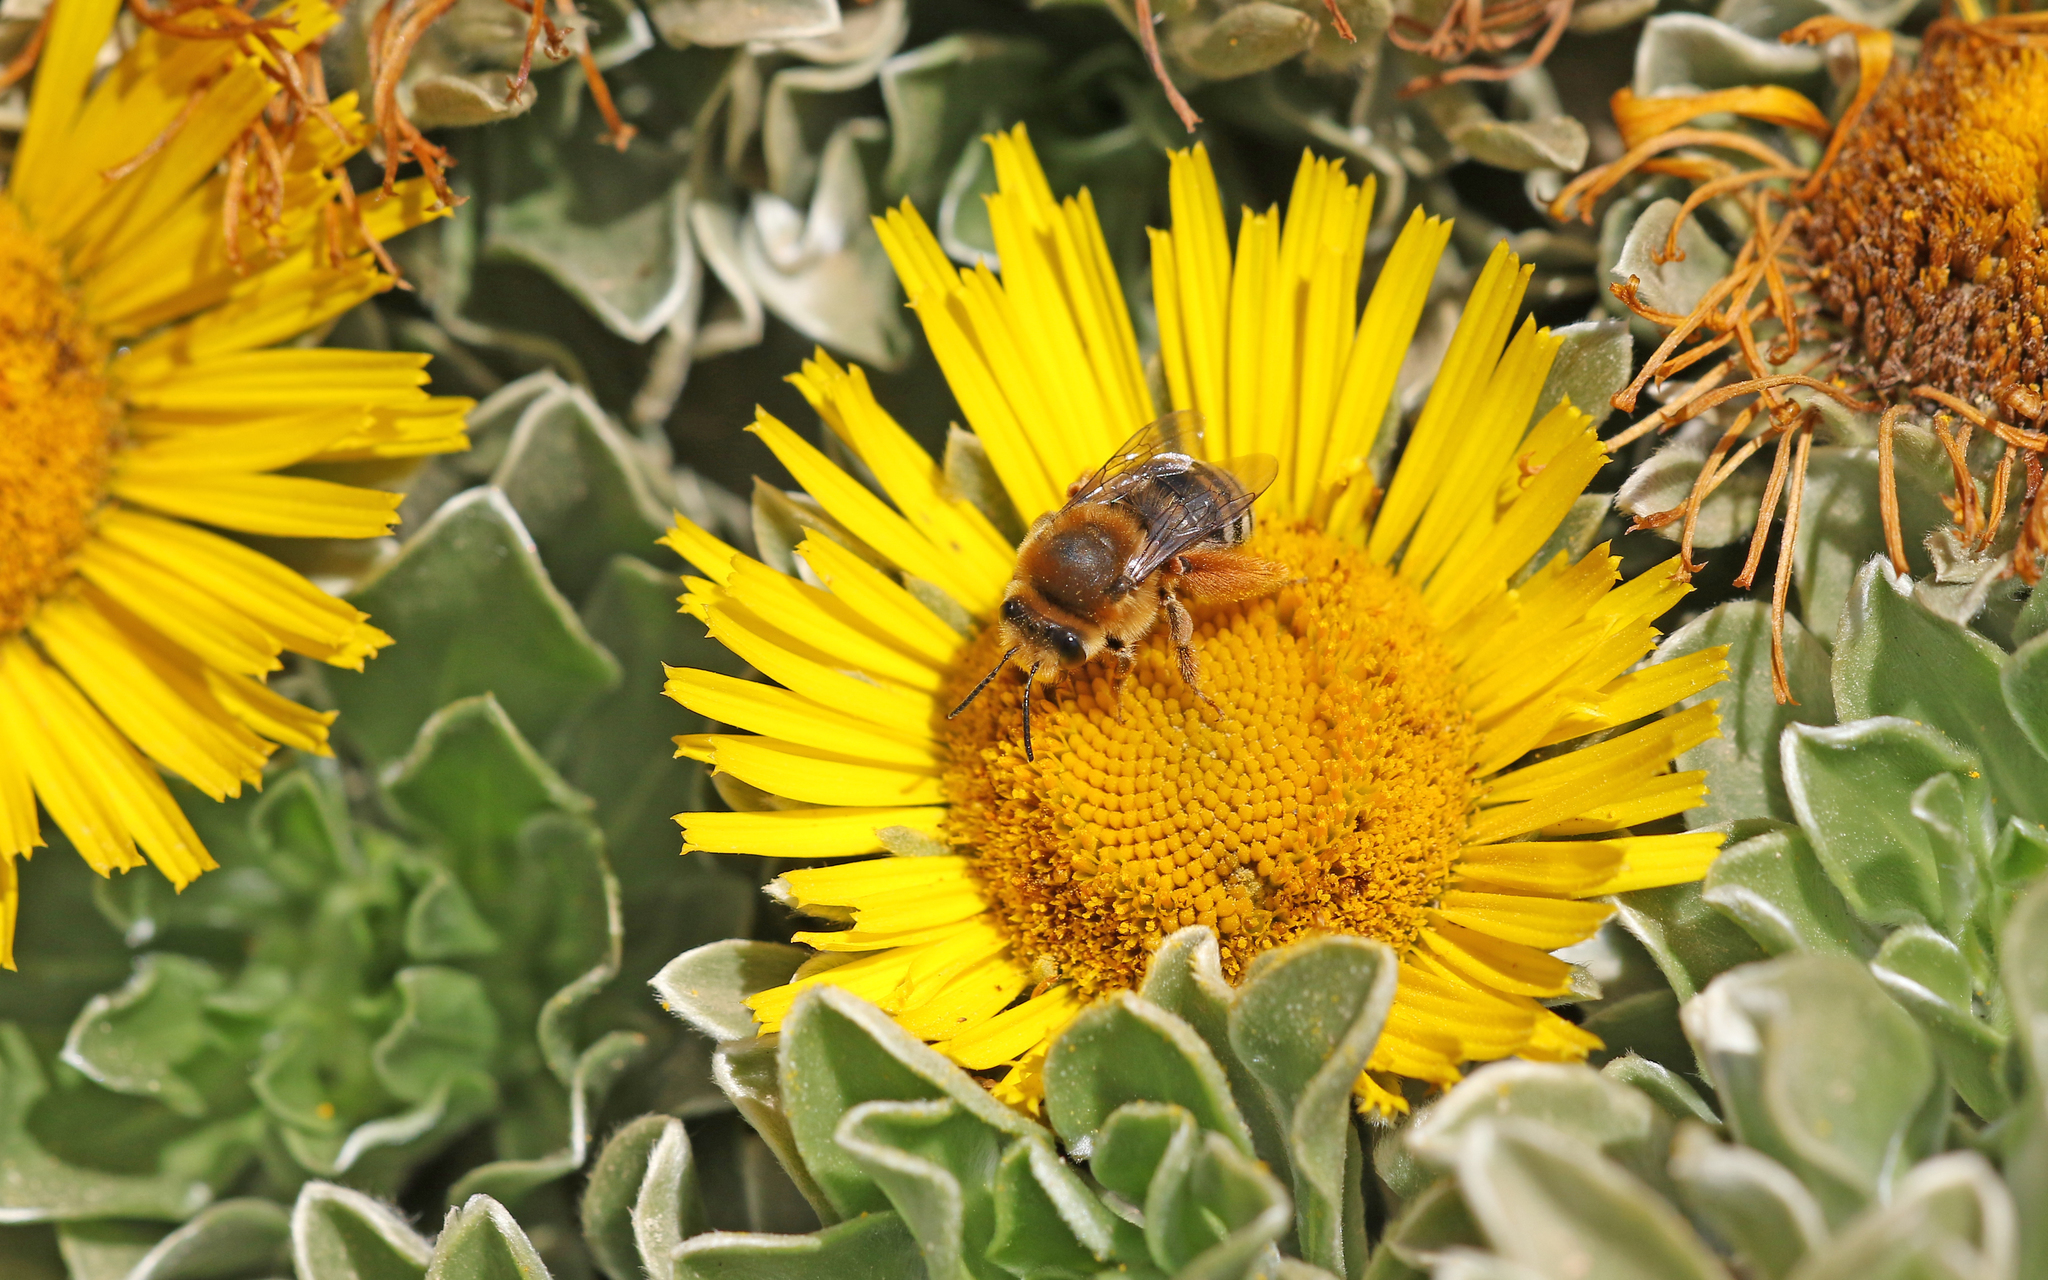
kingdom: Animalia
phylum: Arthropoda
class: Insecta
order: Hymenoptera
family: Apidae
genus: Eucera
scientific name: Eucera algira
